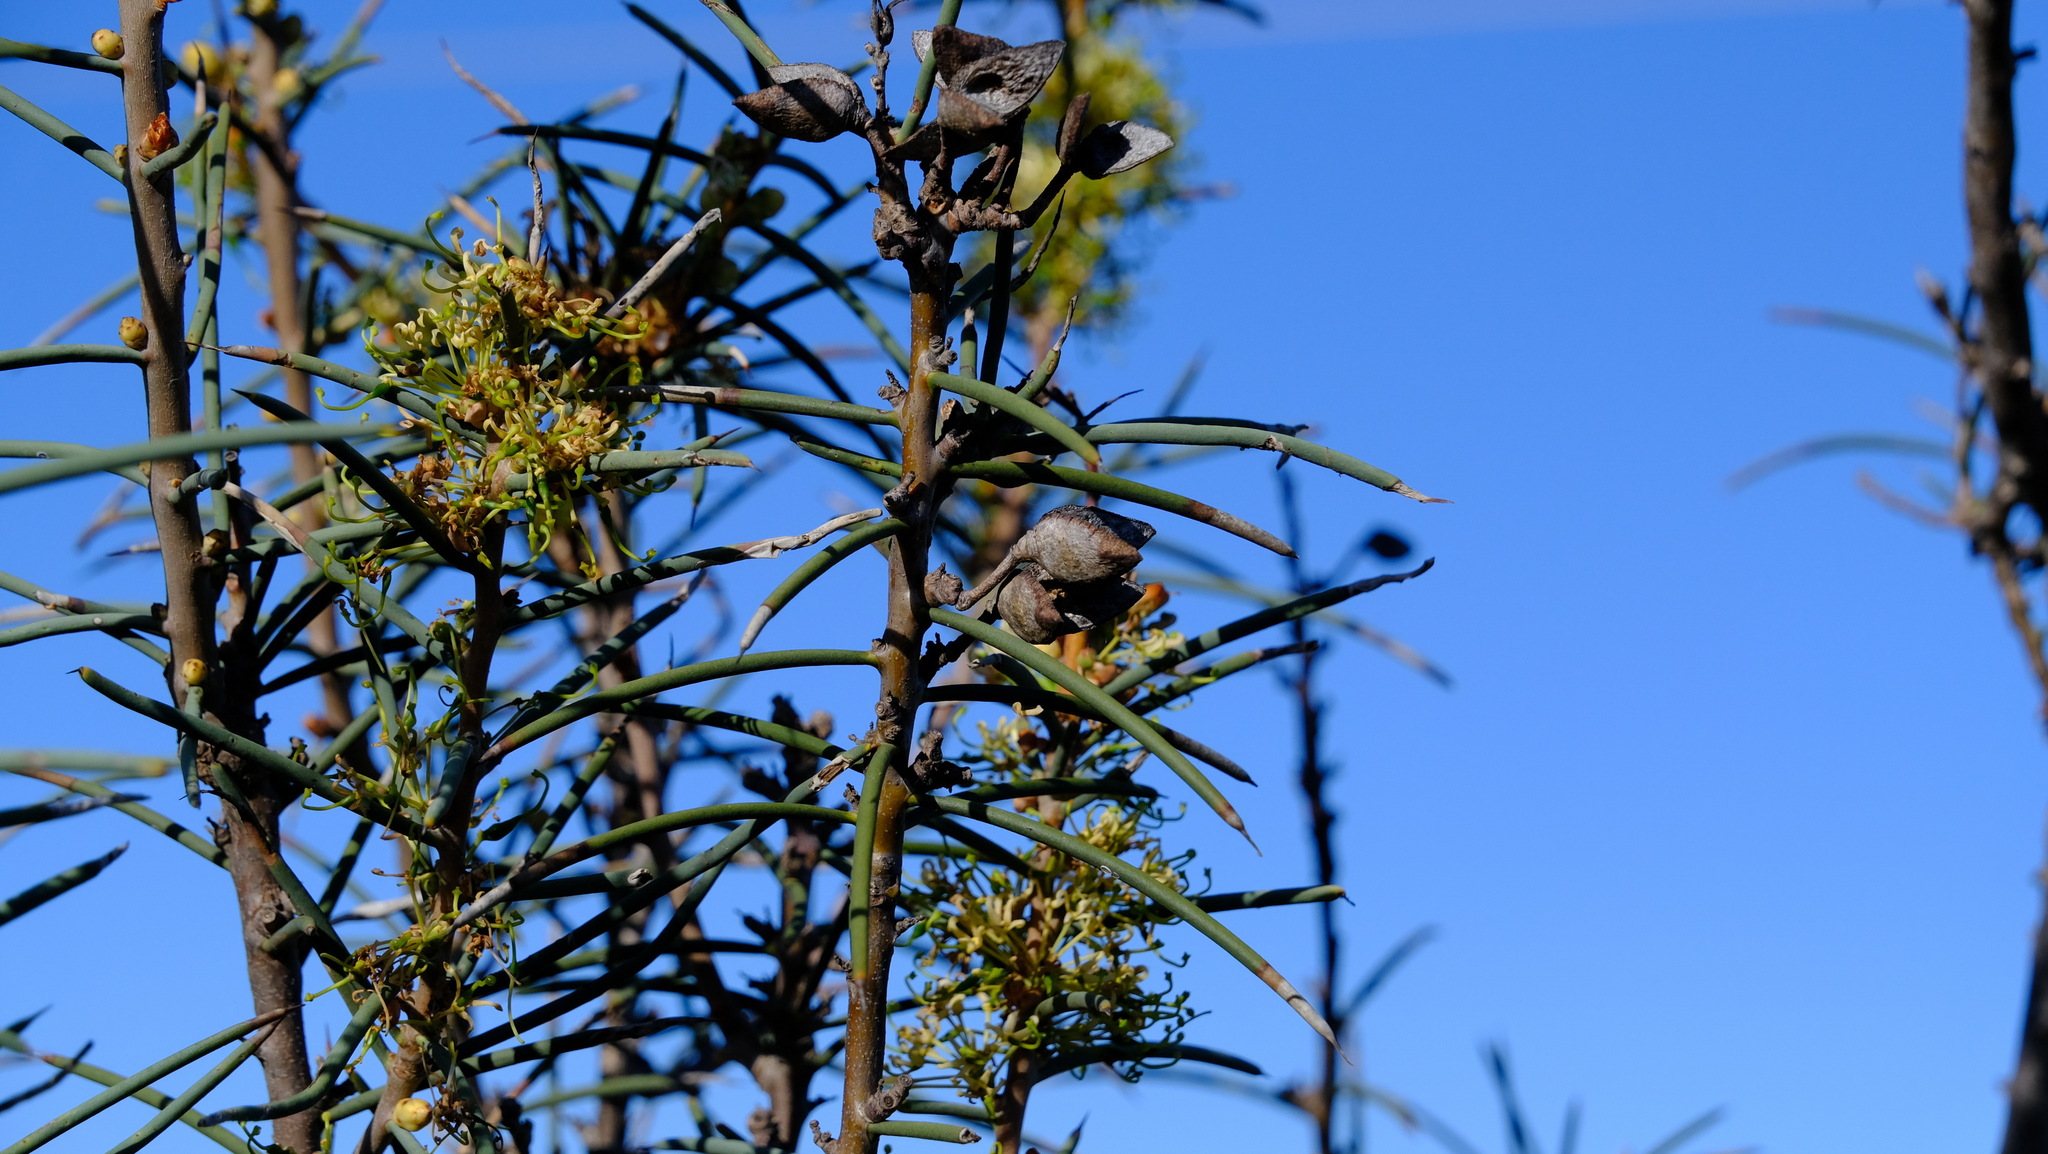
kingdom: Plantae
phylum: Tracheophyta
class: Magnoliopsida
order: Proteales
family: Proteaceae
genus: Hakea
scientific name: Hakea recurva
